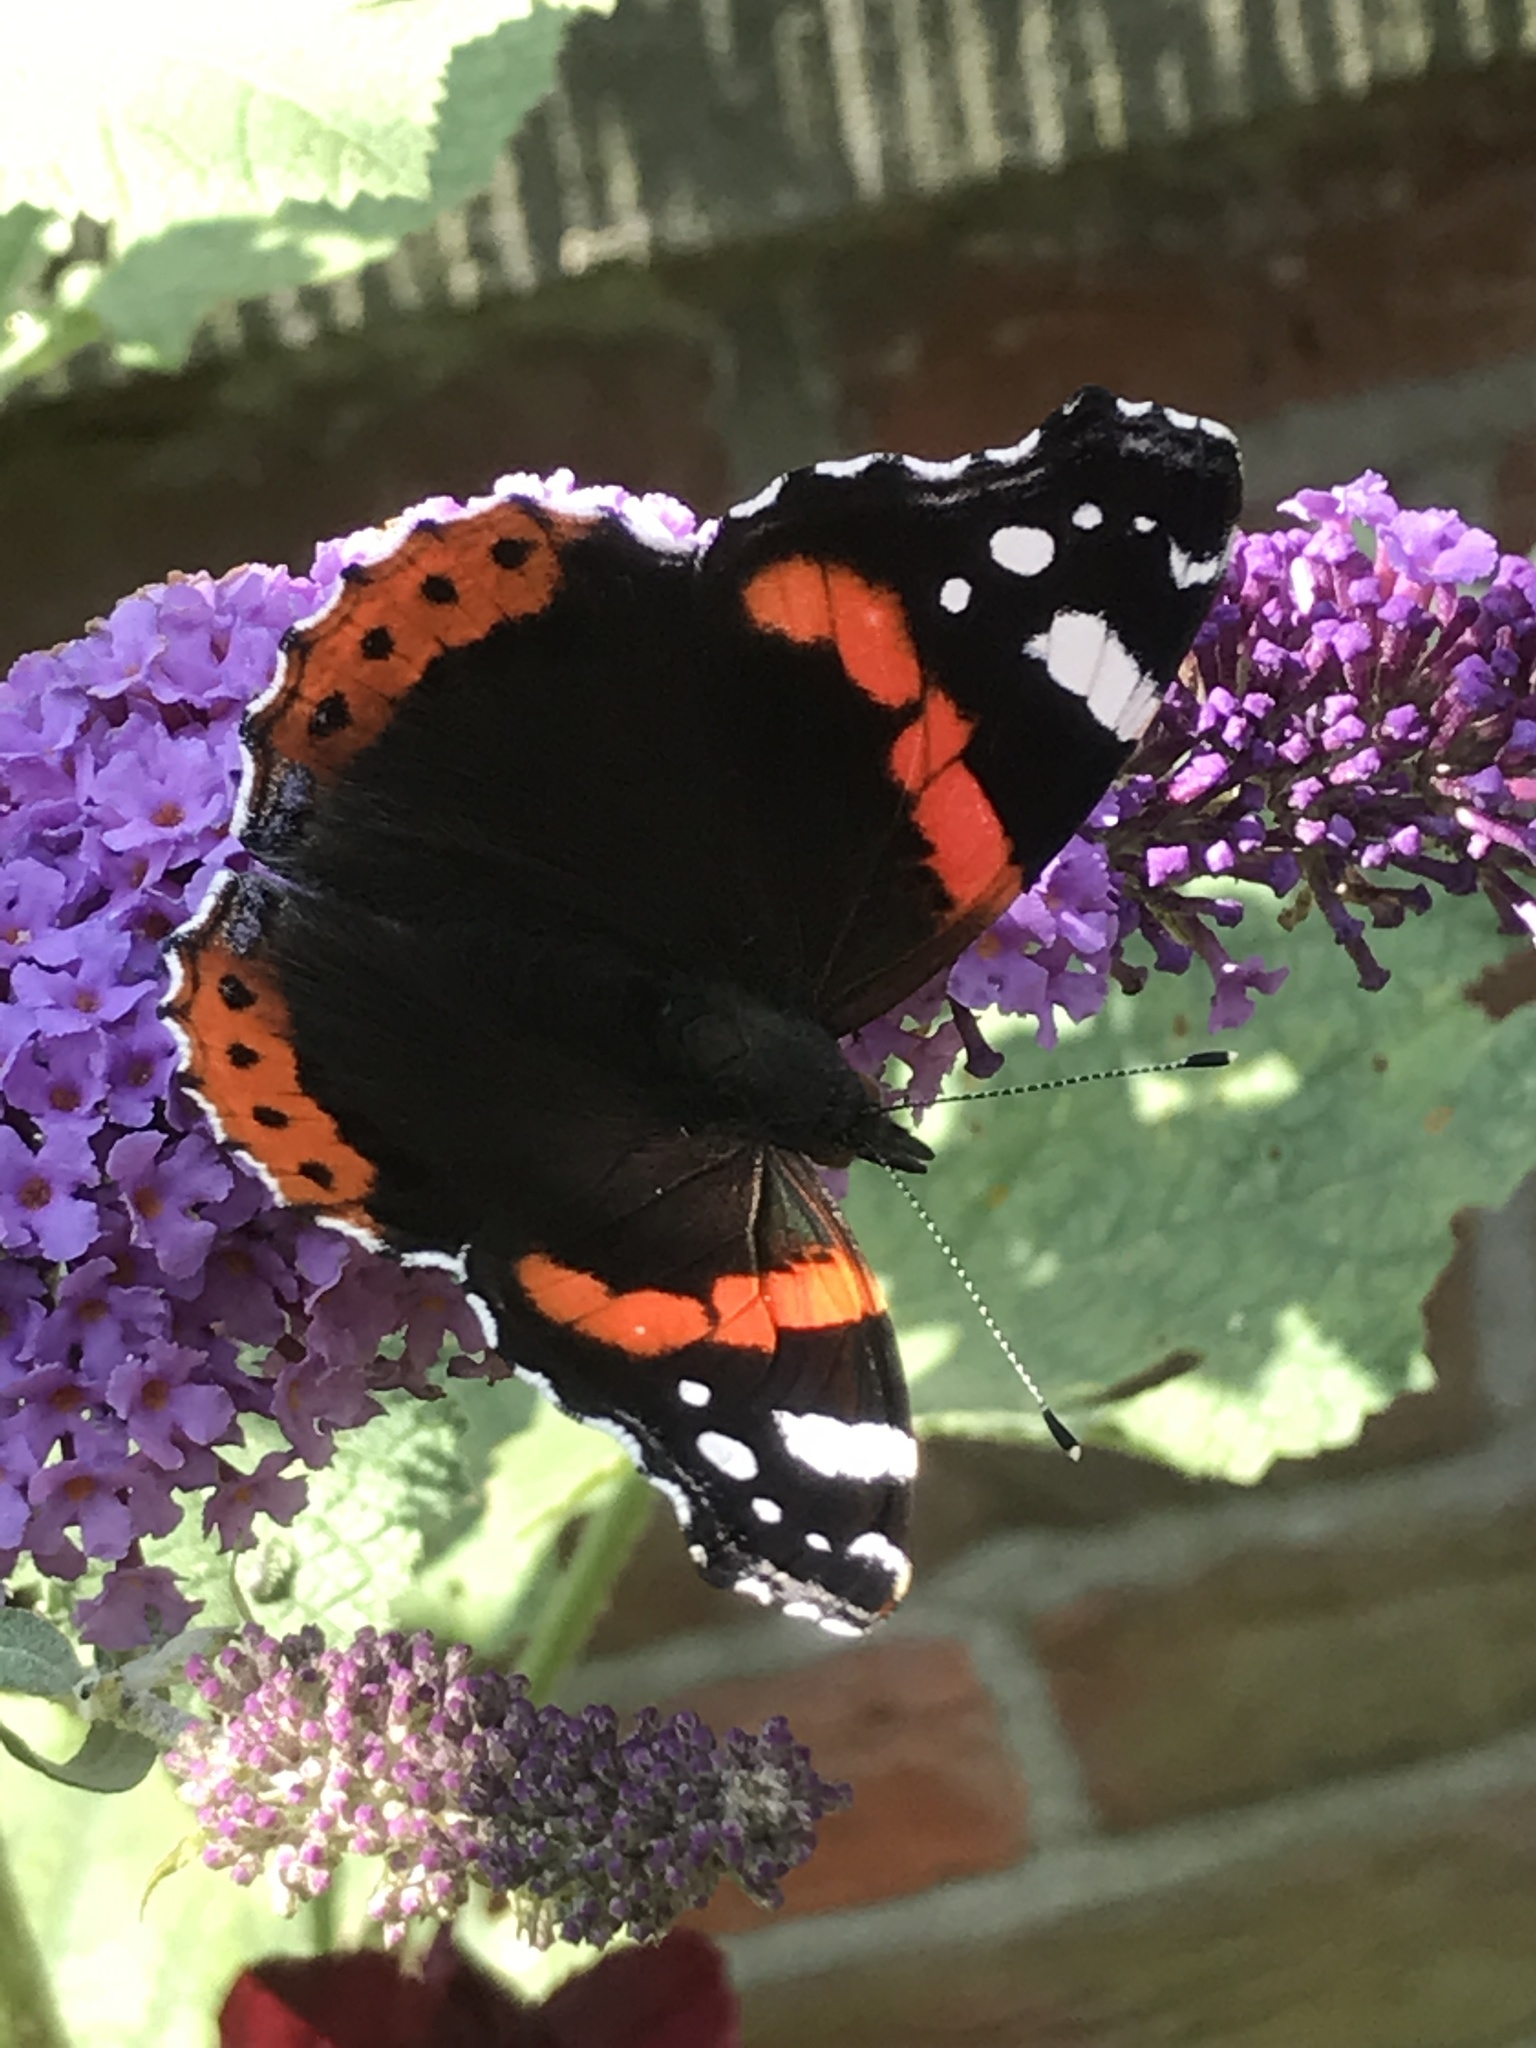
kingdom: Animalia
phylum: Arthropoda
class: Insecta
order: Lepidoptera
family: Nymphalidae
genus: Vanessa
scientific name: Vanessa atalanta
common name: Red admiral
